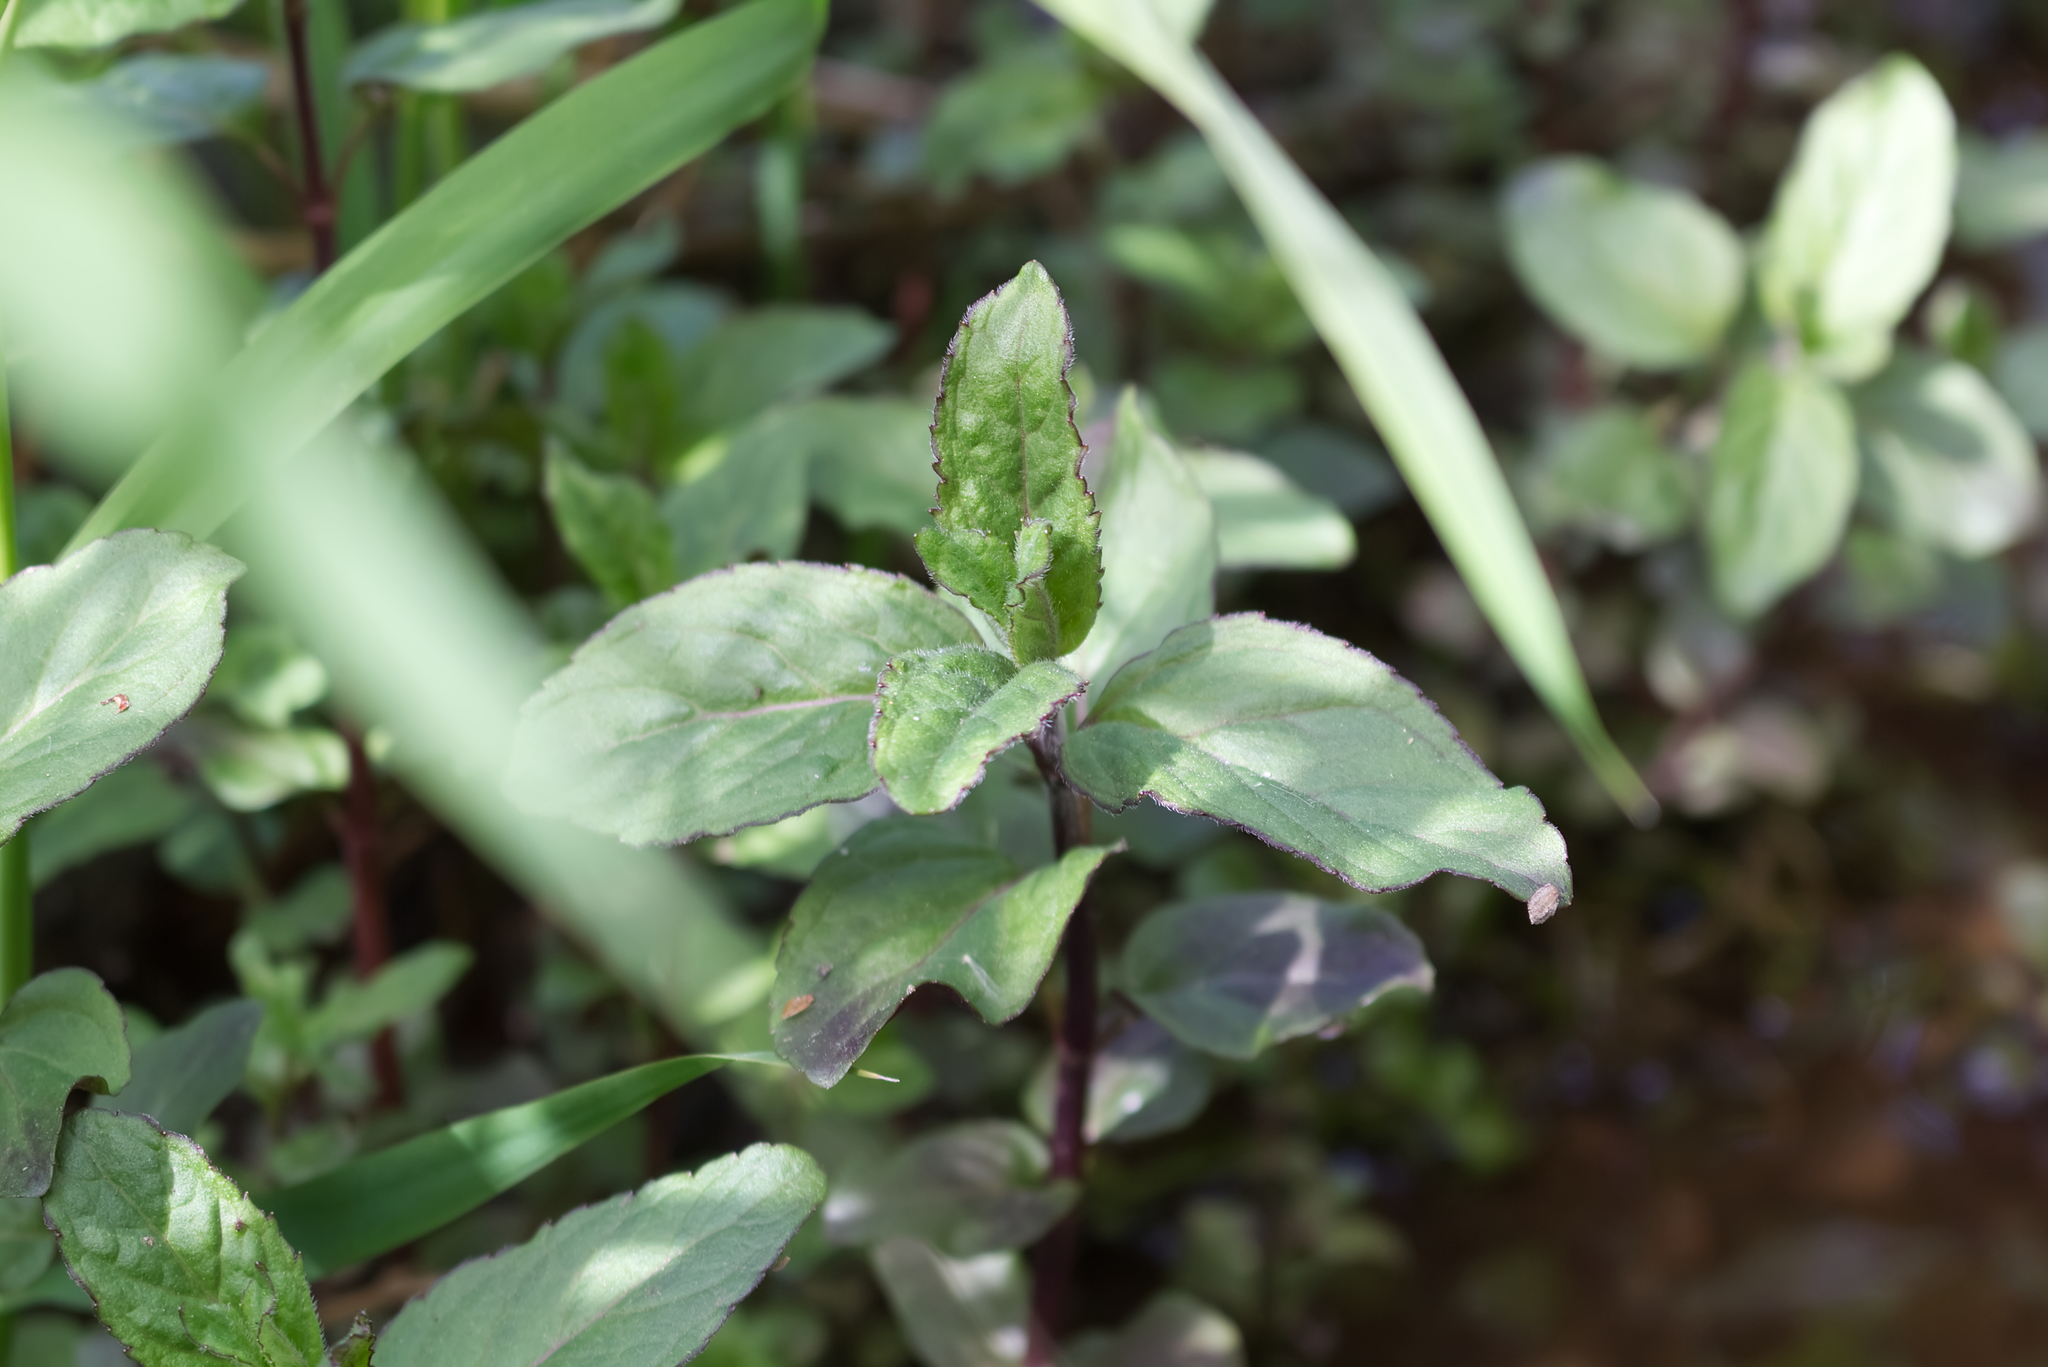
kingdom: Plantae
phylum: Tracheophyta
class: Magnoliopsida
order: Lamiales
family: Lamiaceae
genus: Mentha
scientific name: Mentha aquatica
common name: Water mint
